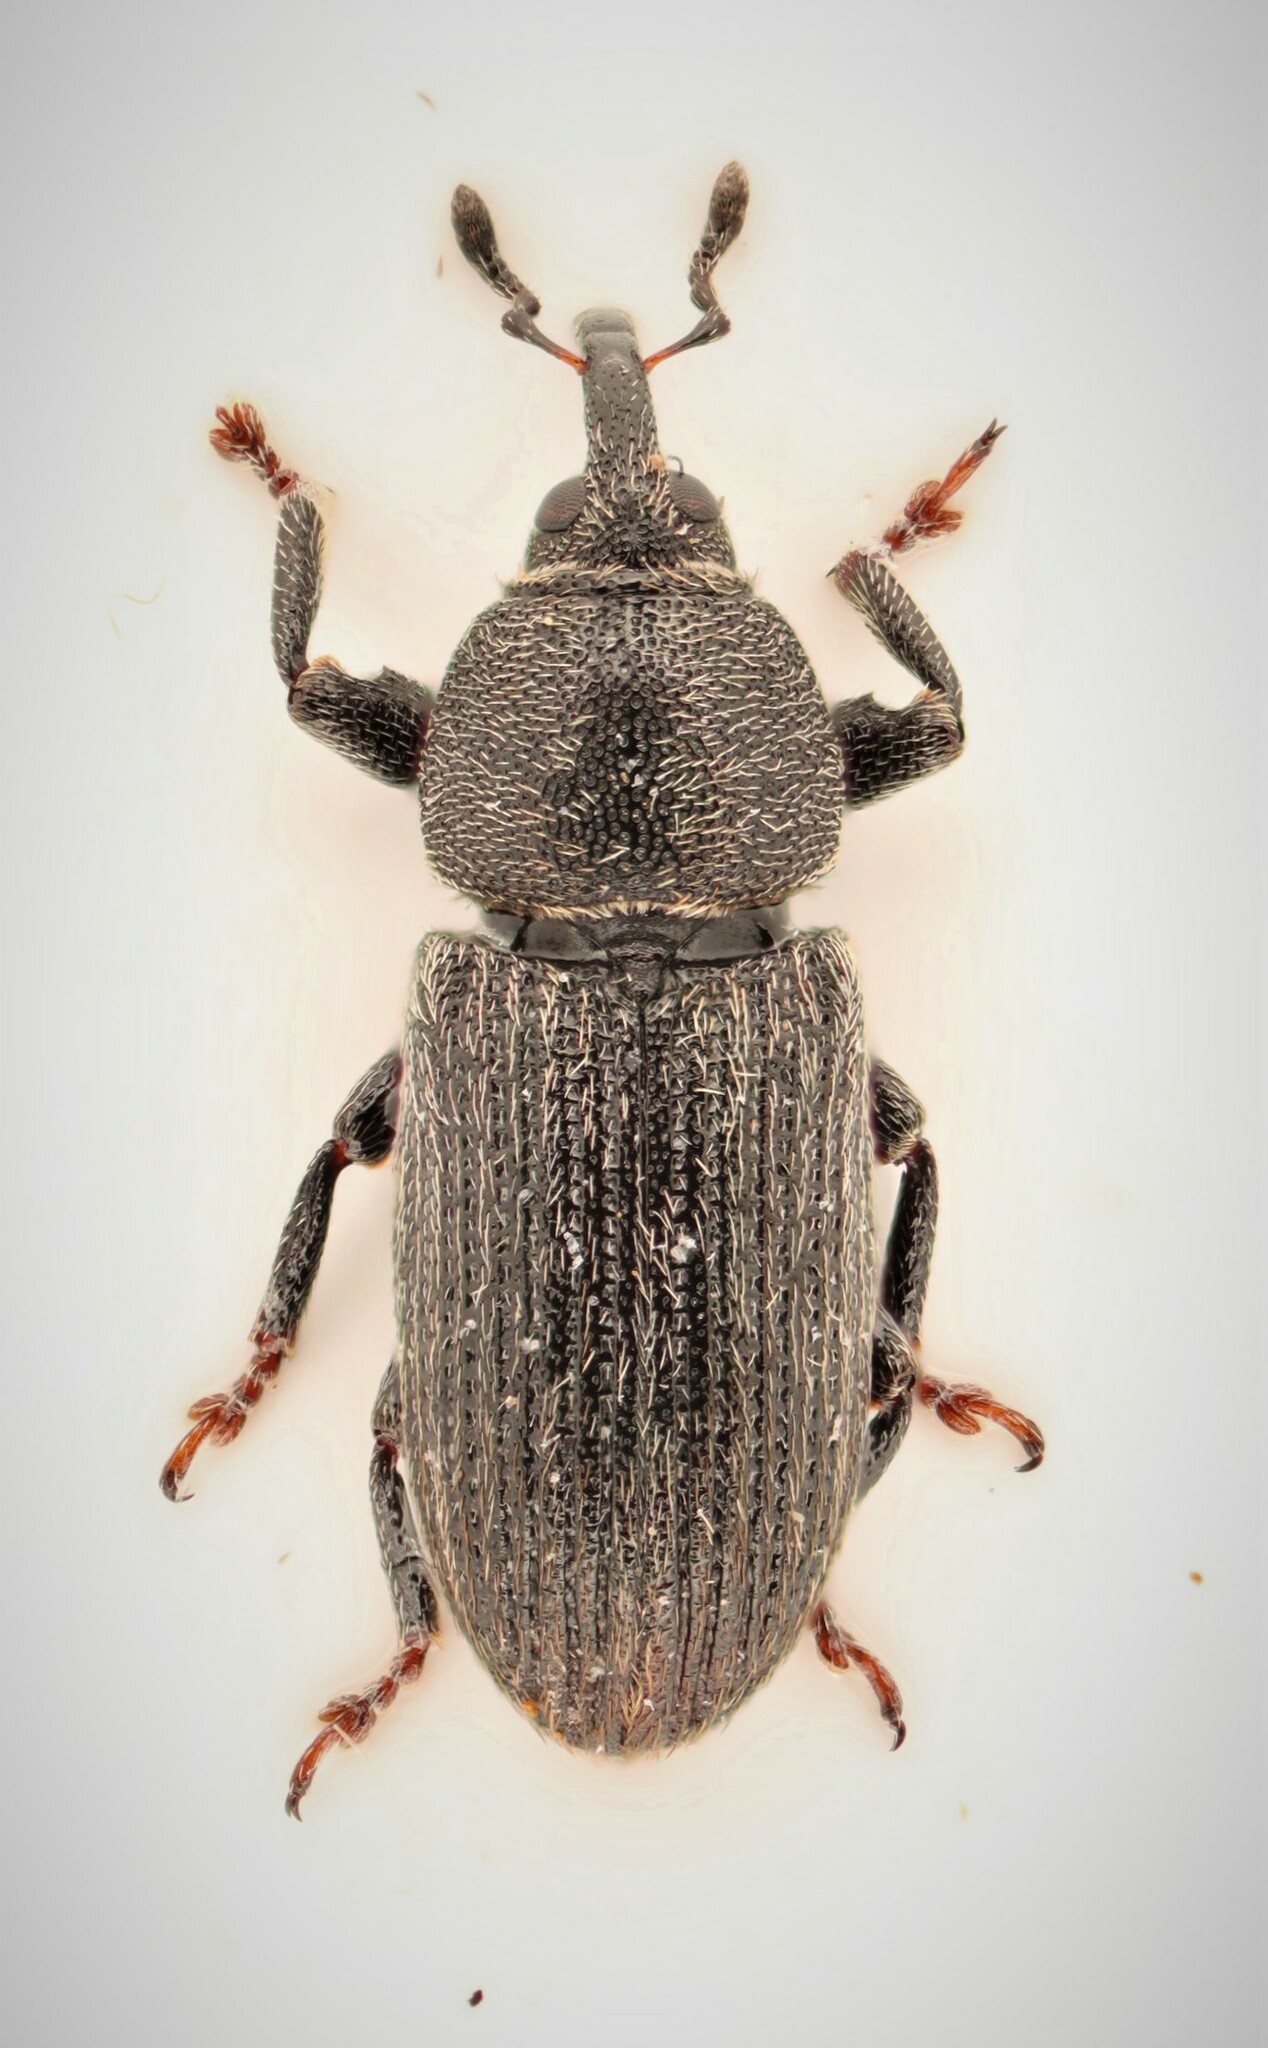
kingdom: Animalia
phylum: Arthropoda
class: Insecta
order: Coleoptera
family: Curculionidae
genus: Mecinus
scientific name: Mecinus pyraster
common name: Weevil
